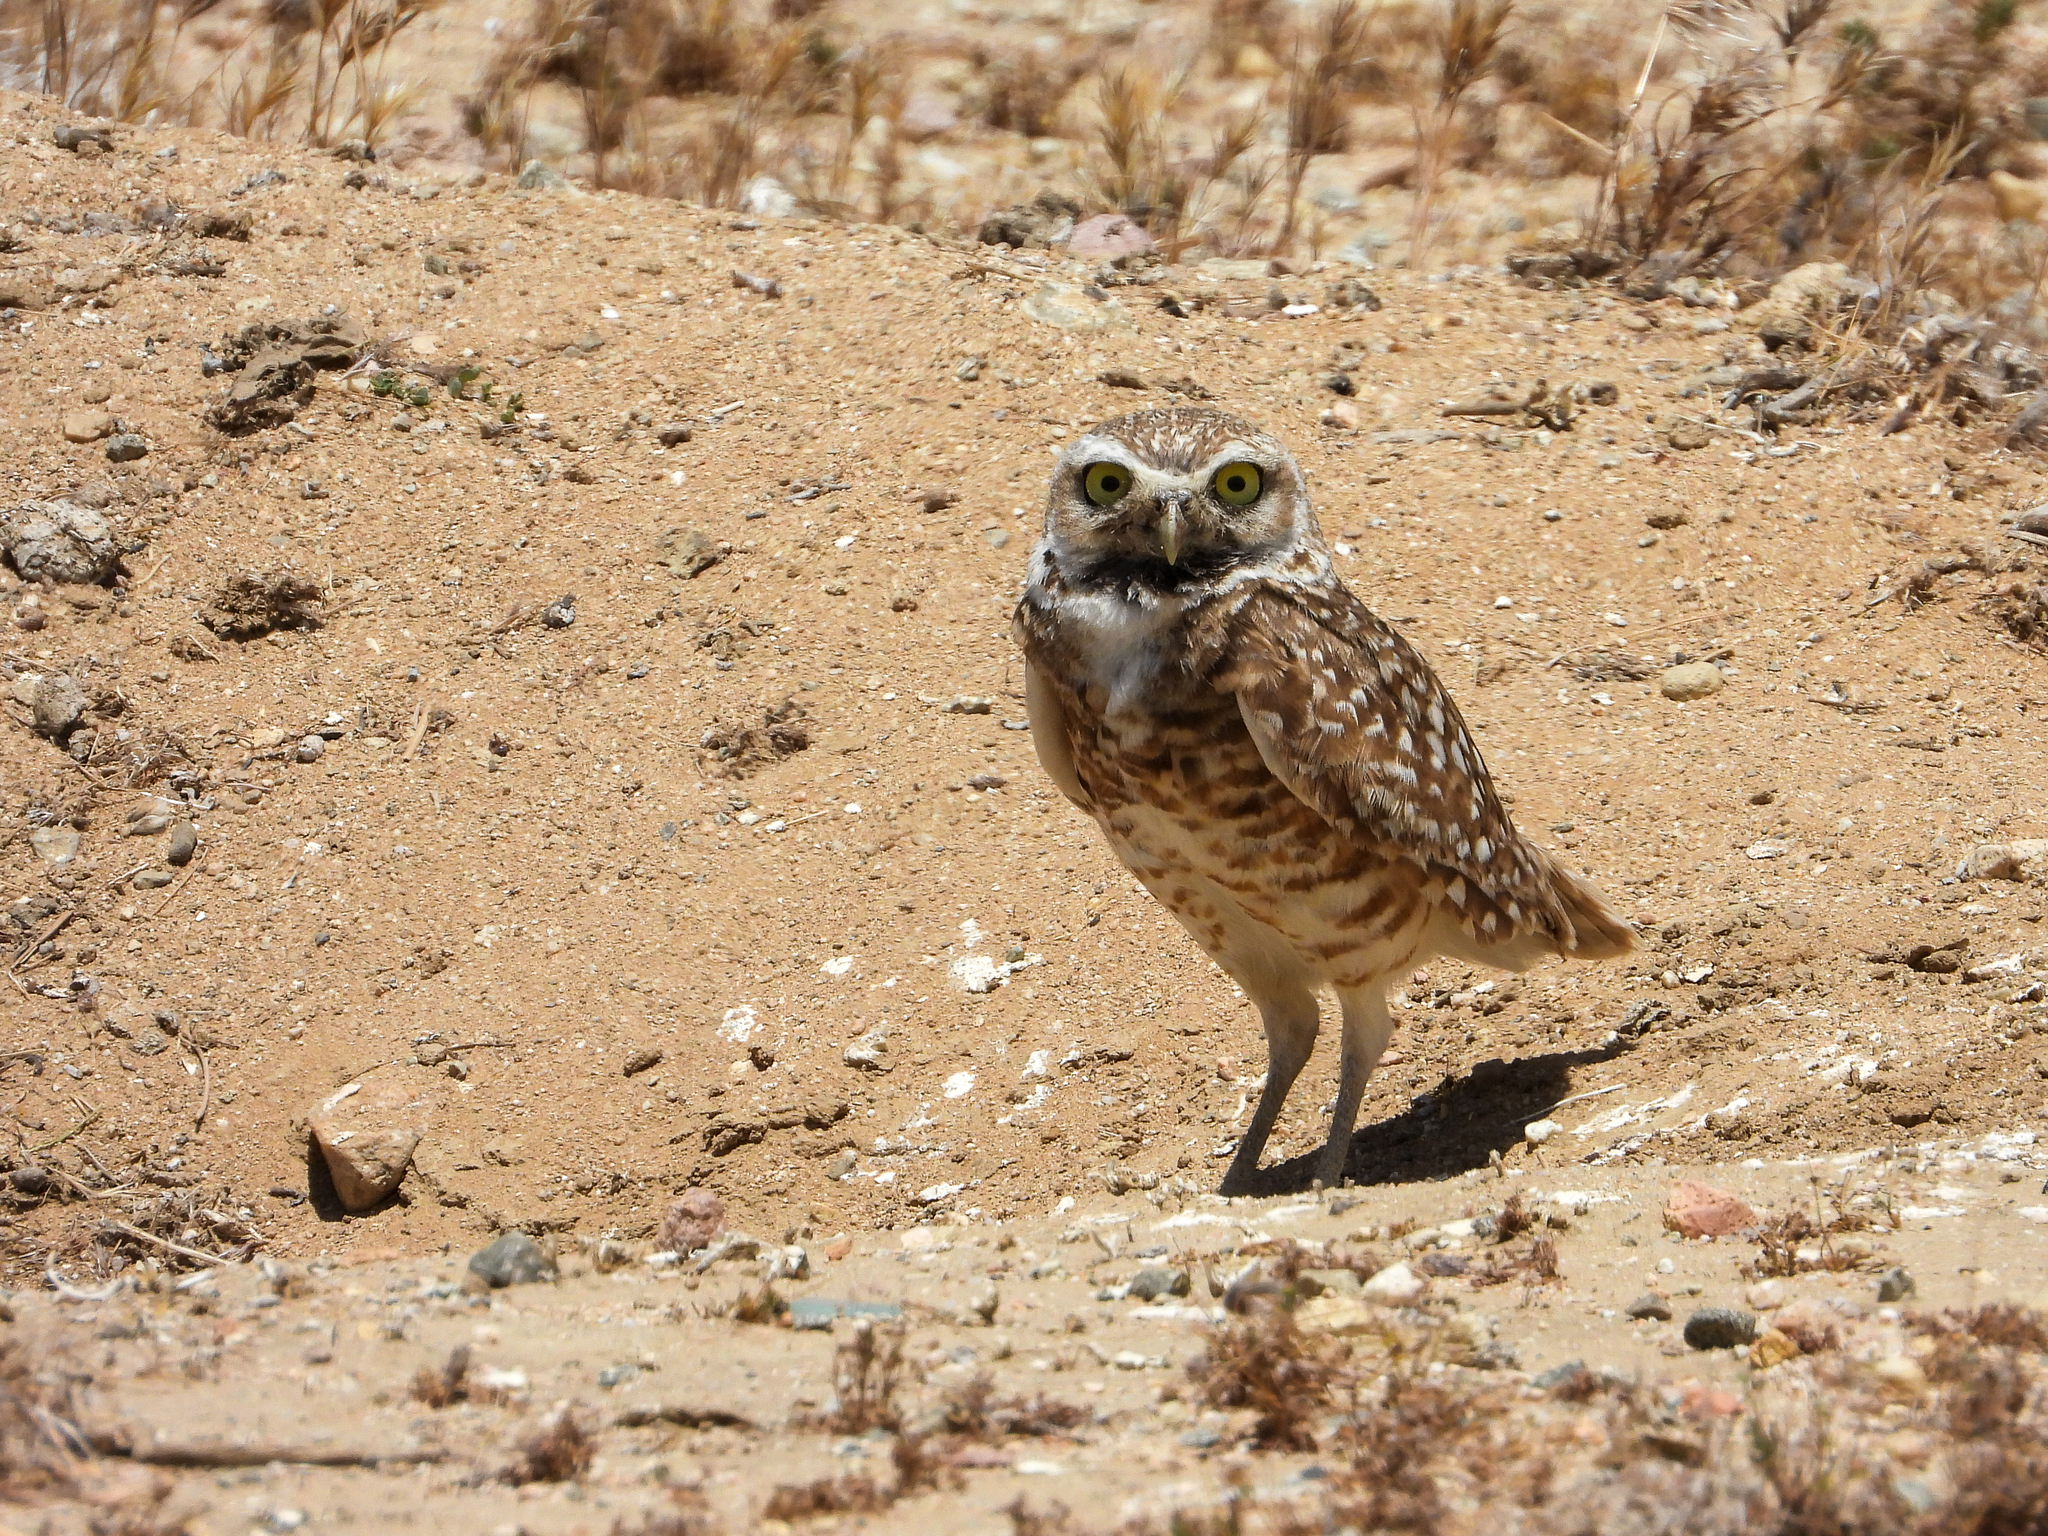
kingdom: Animalia
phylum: Chordata
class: Aves
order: Strigiformes
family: Strigidae
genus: Athene
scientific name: Athene cunicularia
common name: Burrowing owl
